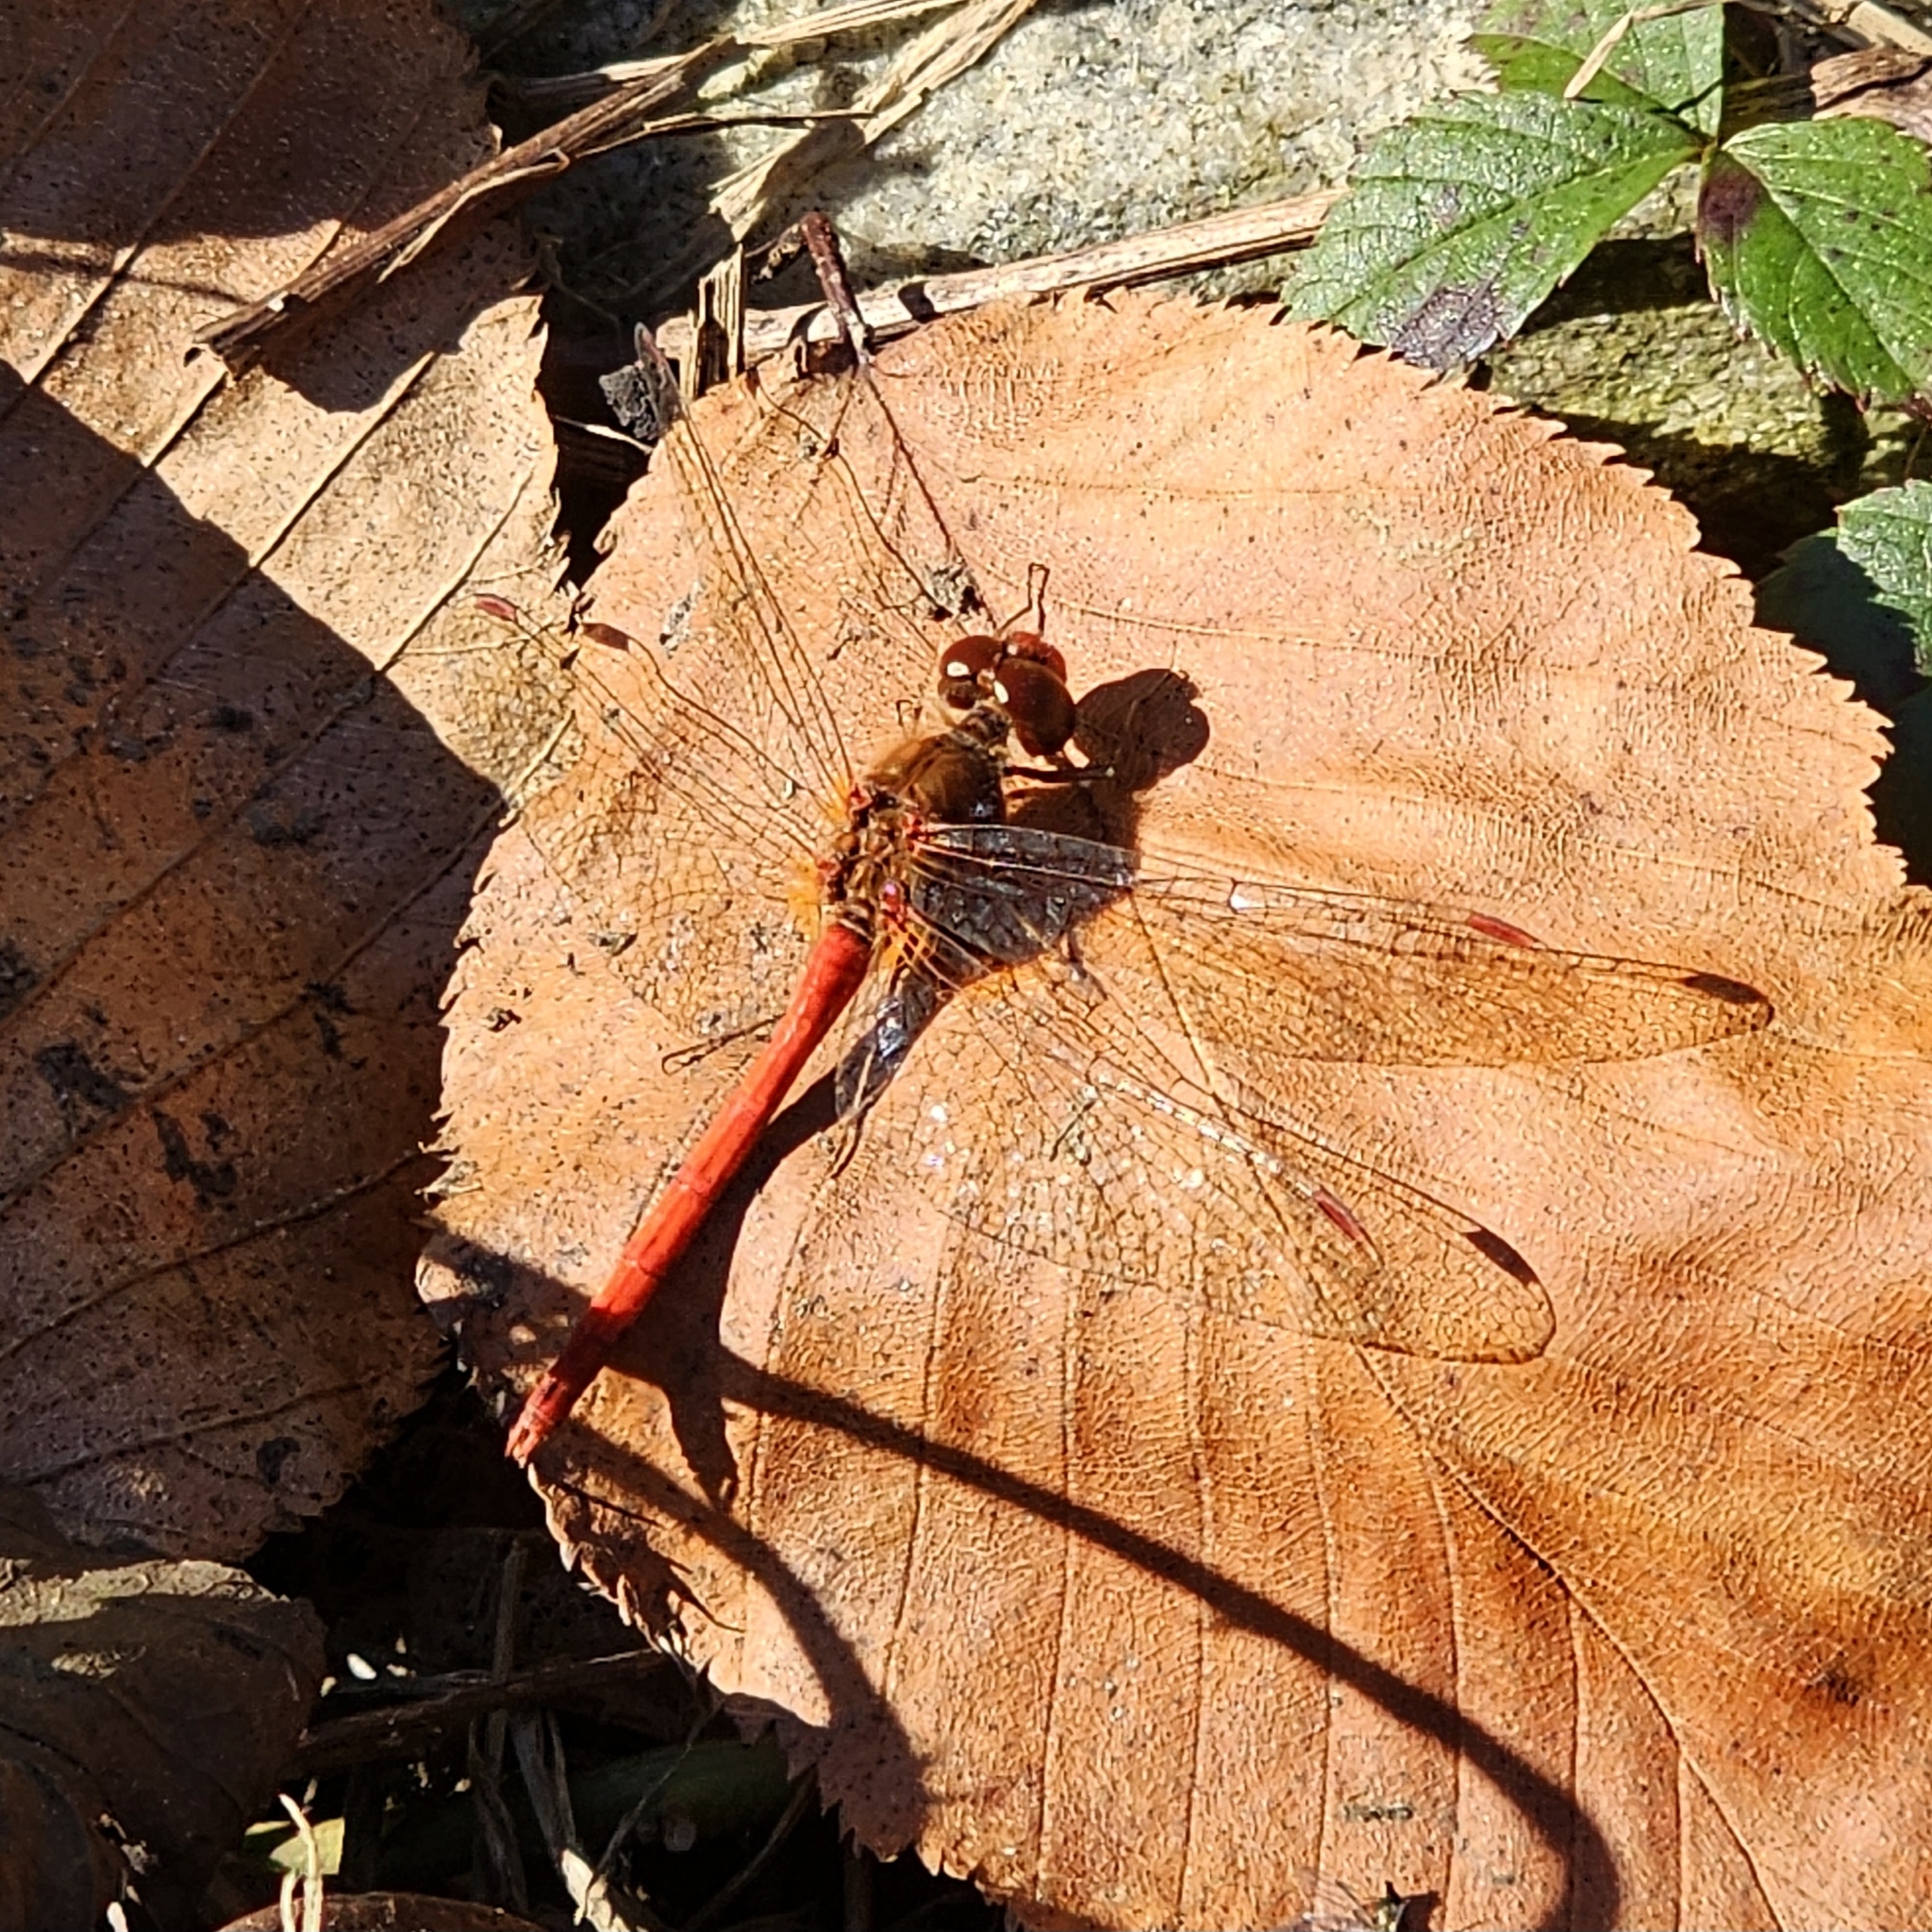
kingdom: Animalia
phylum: Arthropoda
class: Insecta
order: Odonata
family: Libellulidae
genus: Sympetrum
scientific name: Sympetrum vicinum
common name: Autumn meadowhawk
